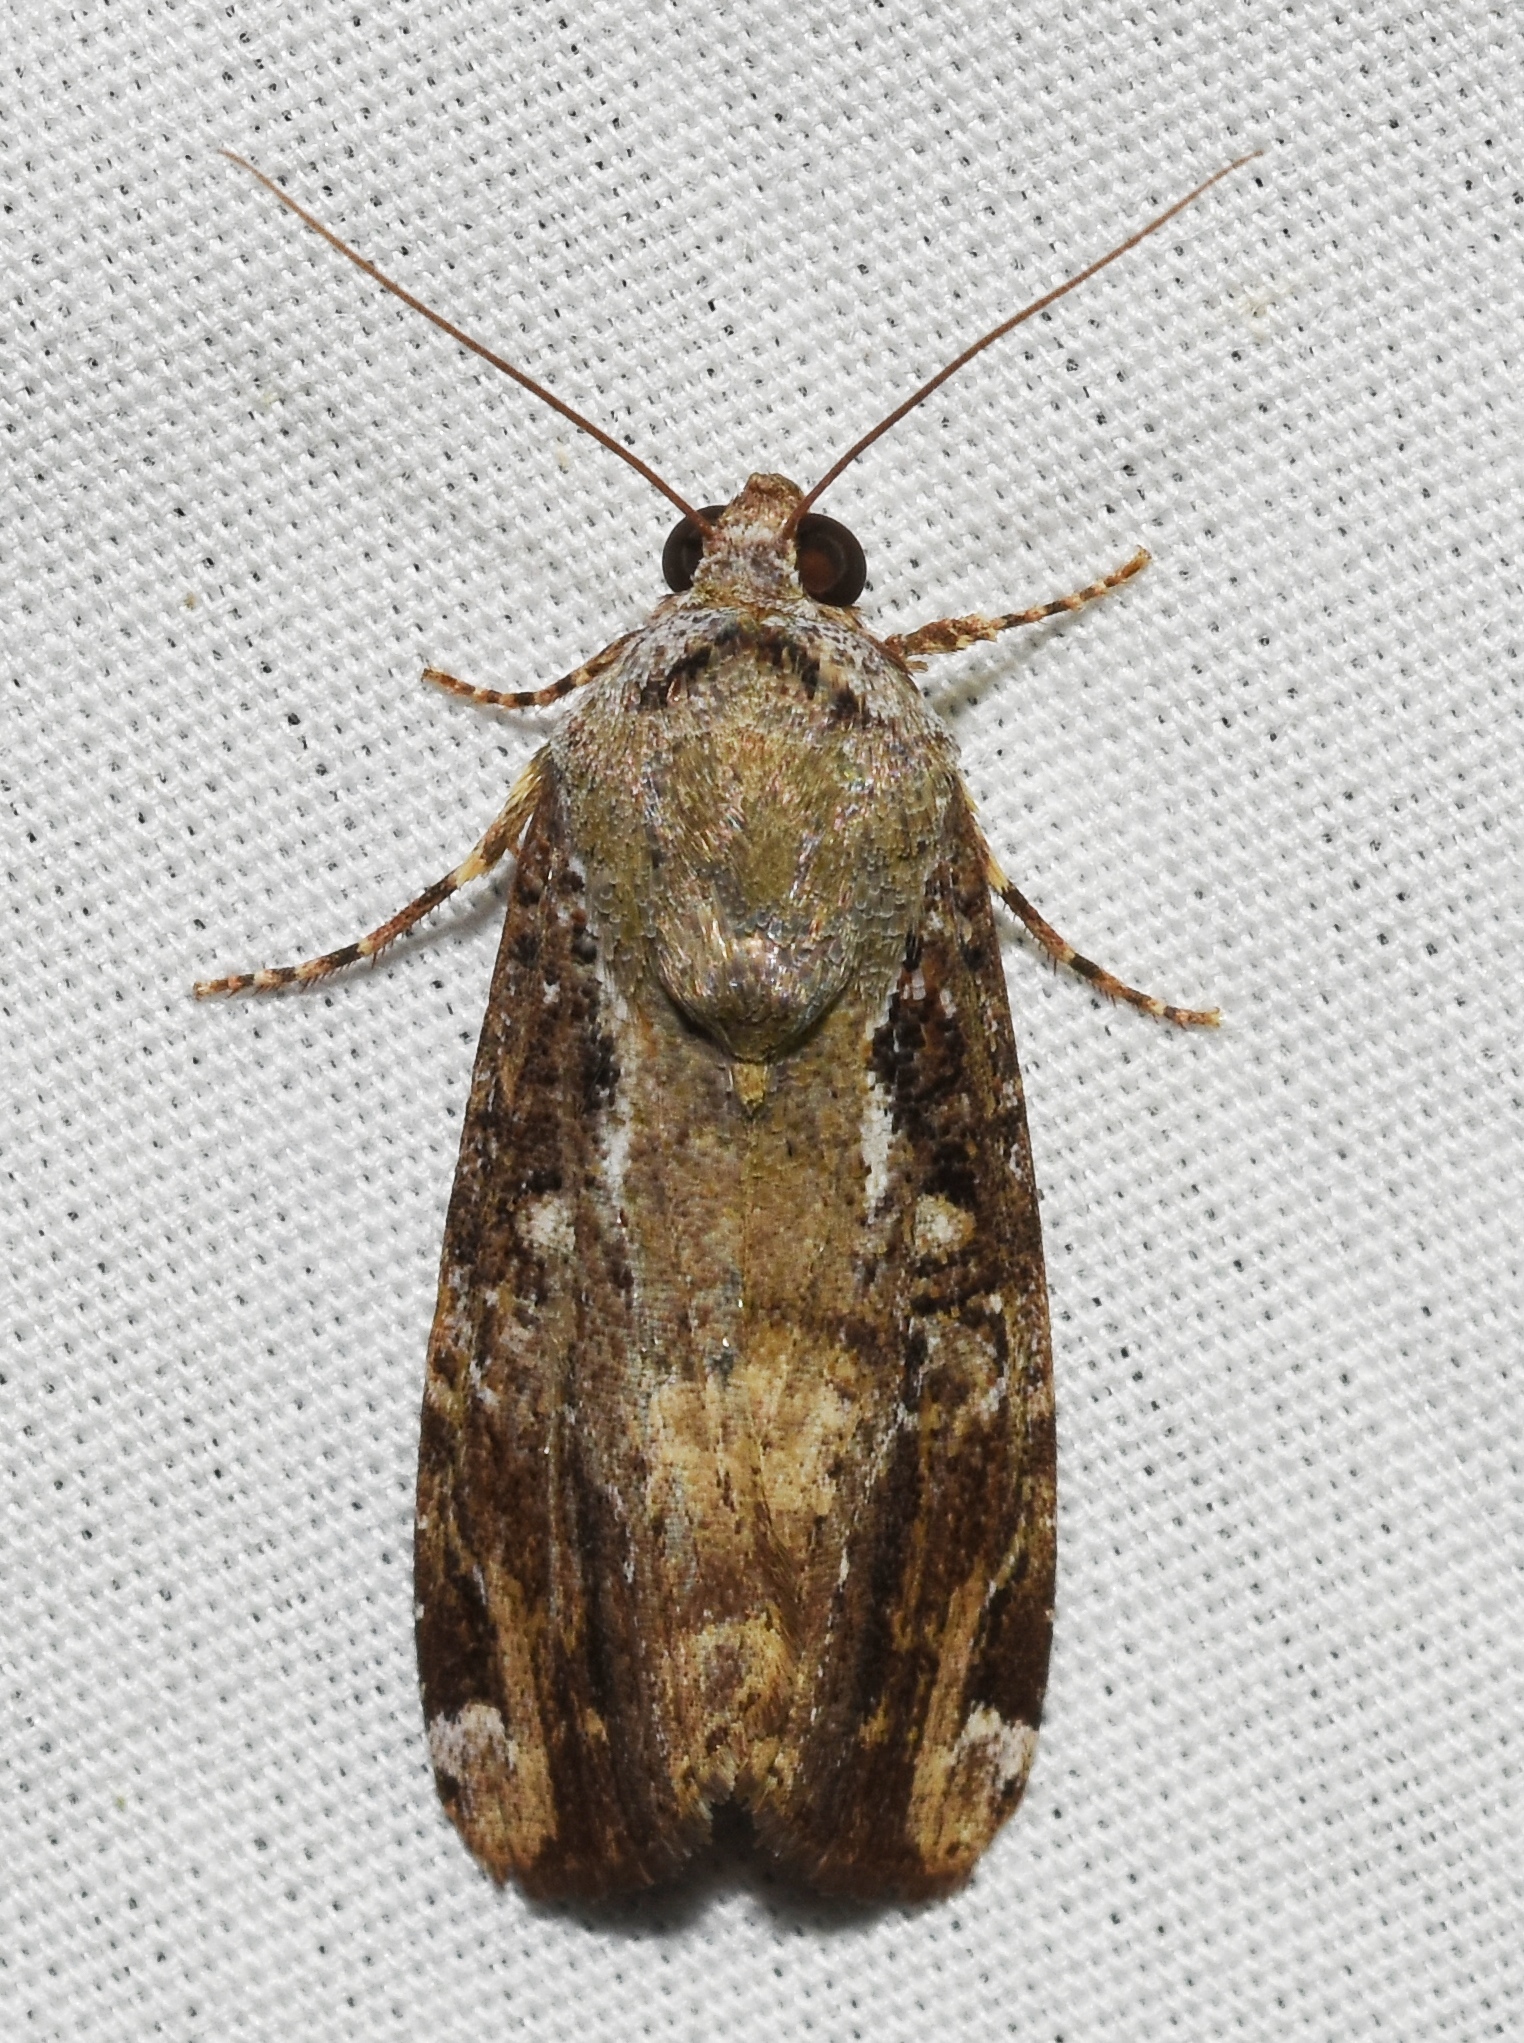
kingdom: Animalia
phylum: Arthropoda
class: Insecta
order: Lepidoptera
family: Noctuidae
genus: Magusa
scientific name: Magusa divaricata
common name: Orb narrow-winged moth
